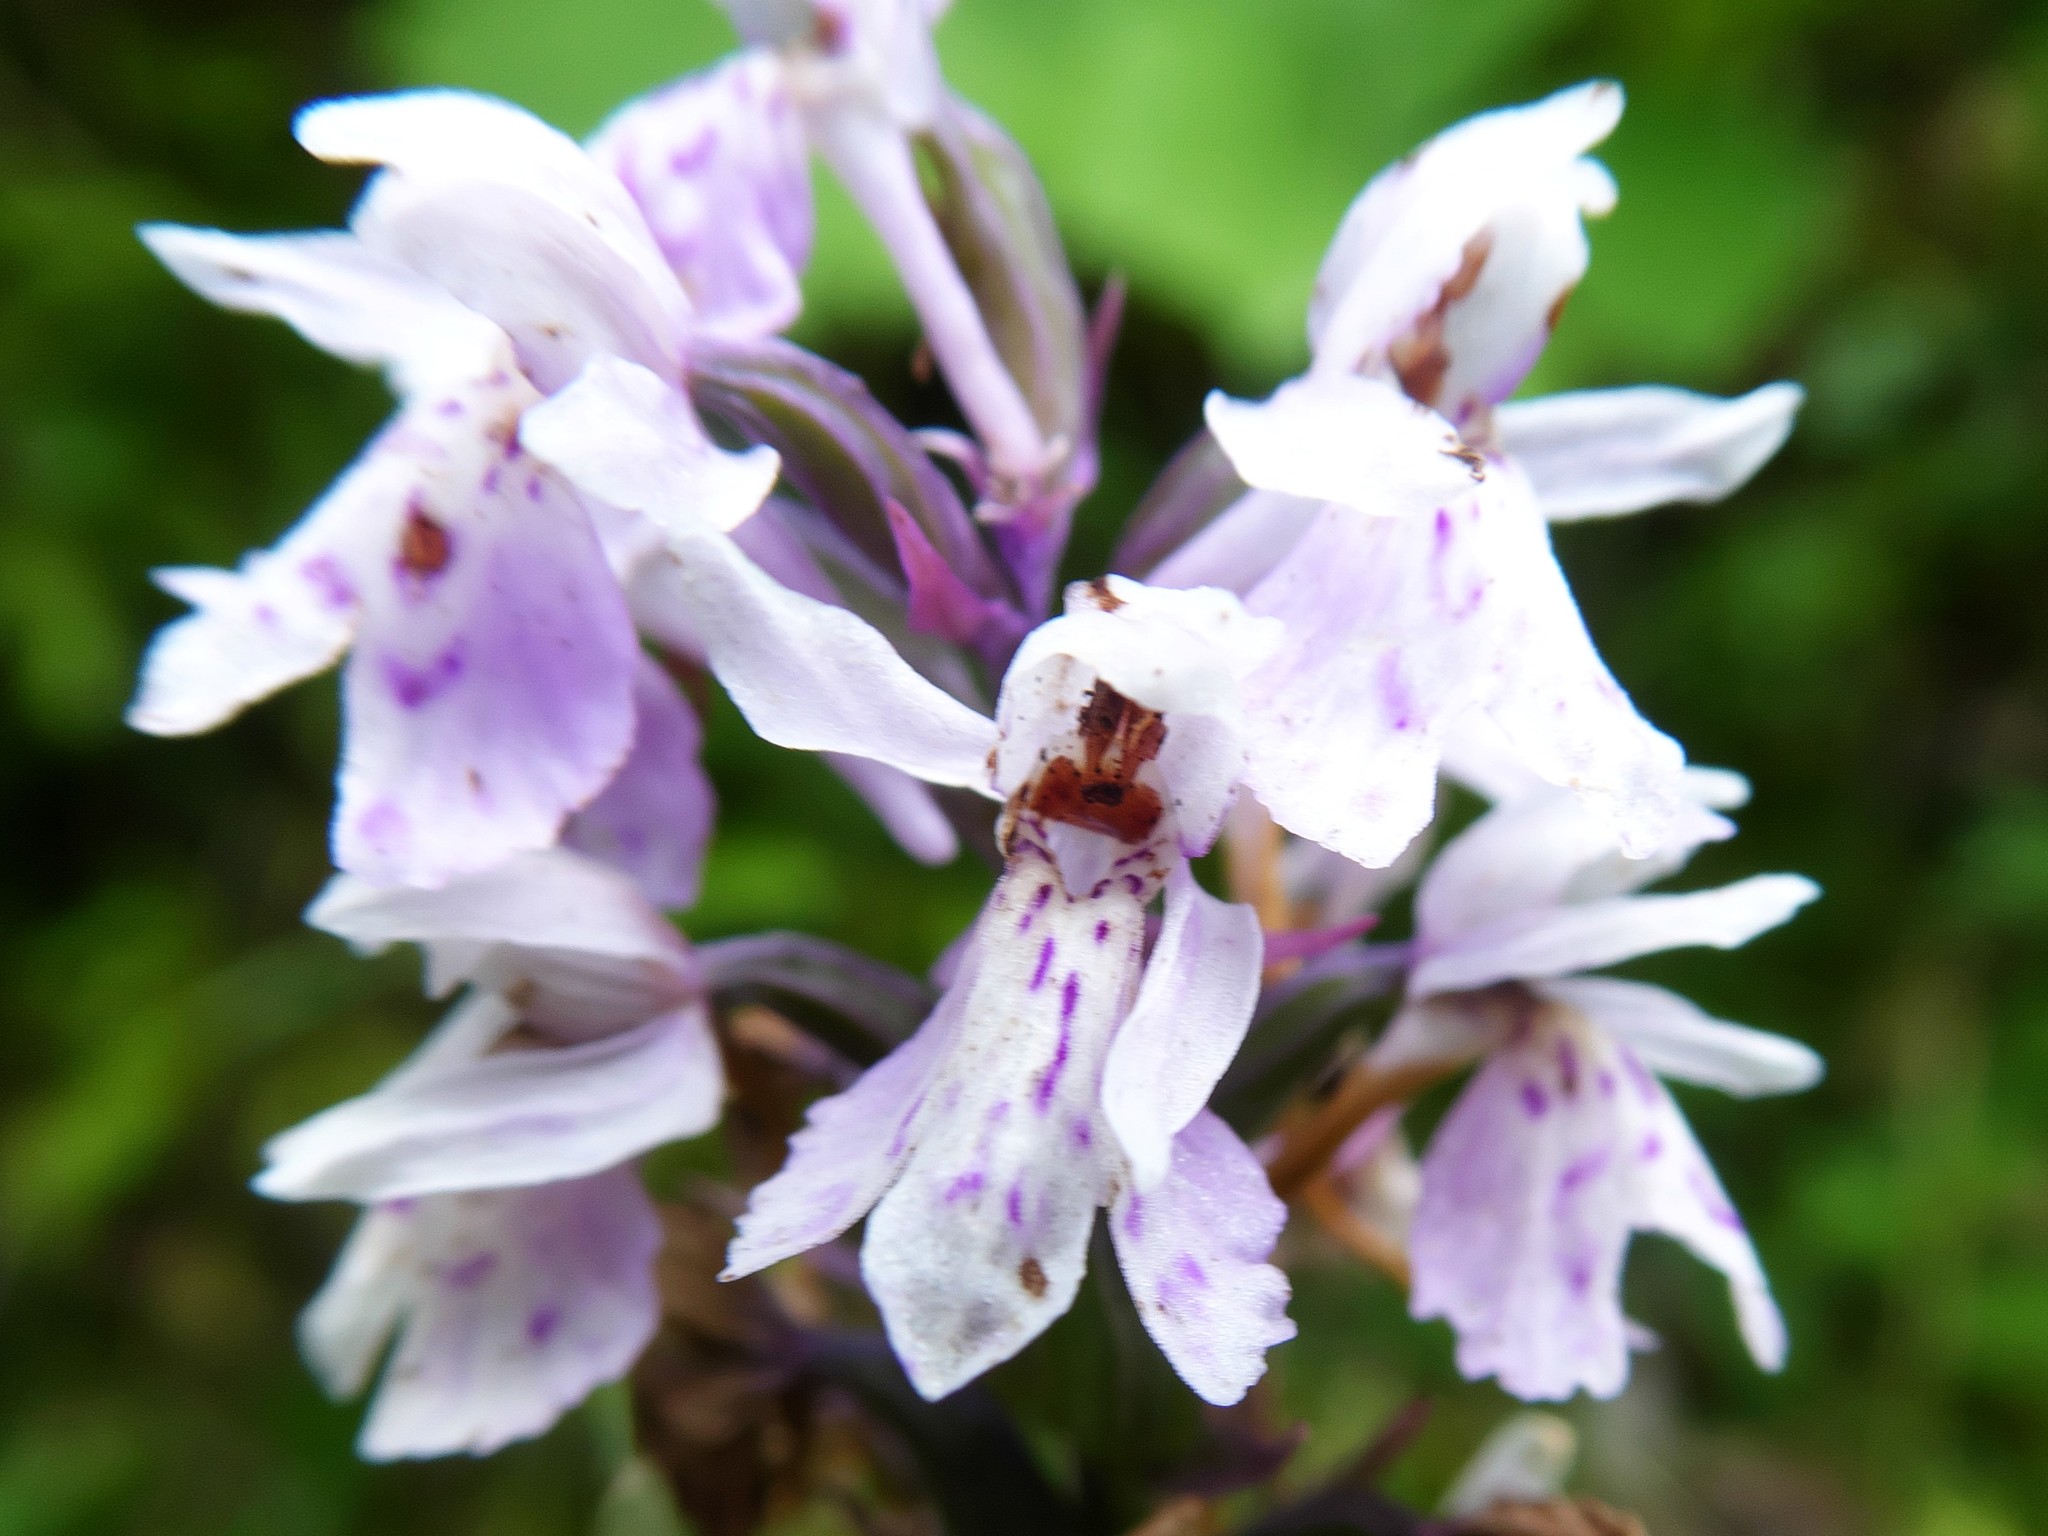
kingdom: Plantae
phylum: Tracheophyta
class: Liliopsida
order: Asparagales
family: Orchidaceae
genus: Dactylorhiza
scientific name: Dactylorhiza maculata
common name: Heath spotted-orchid
